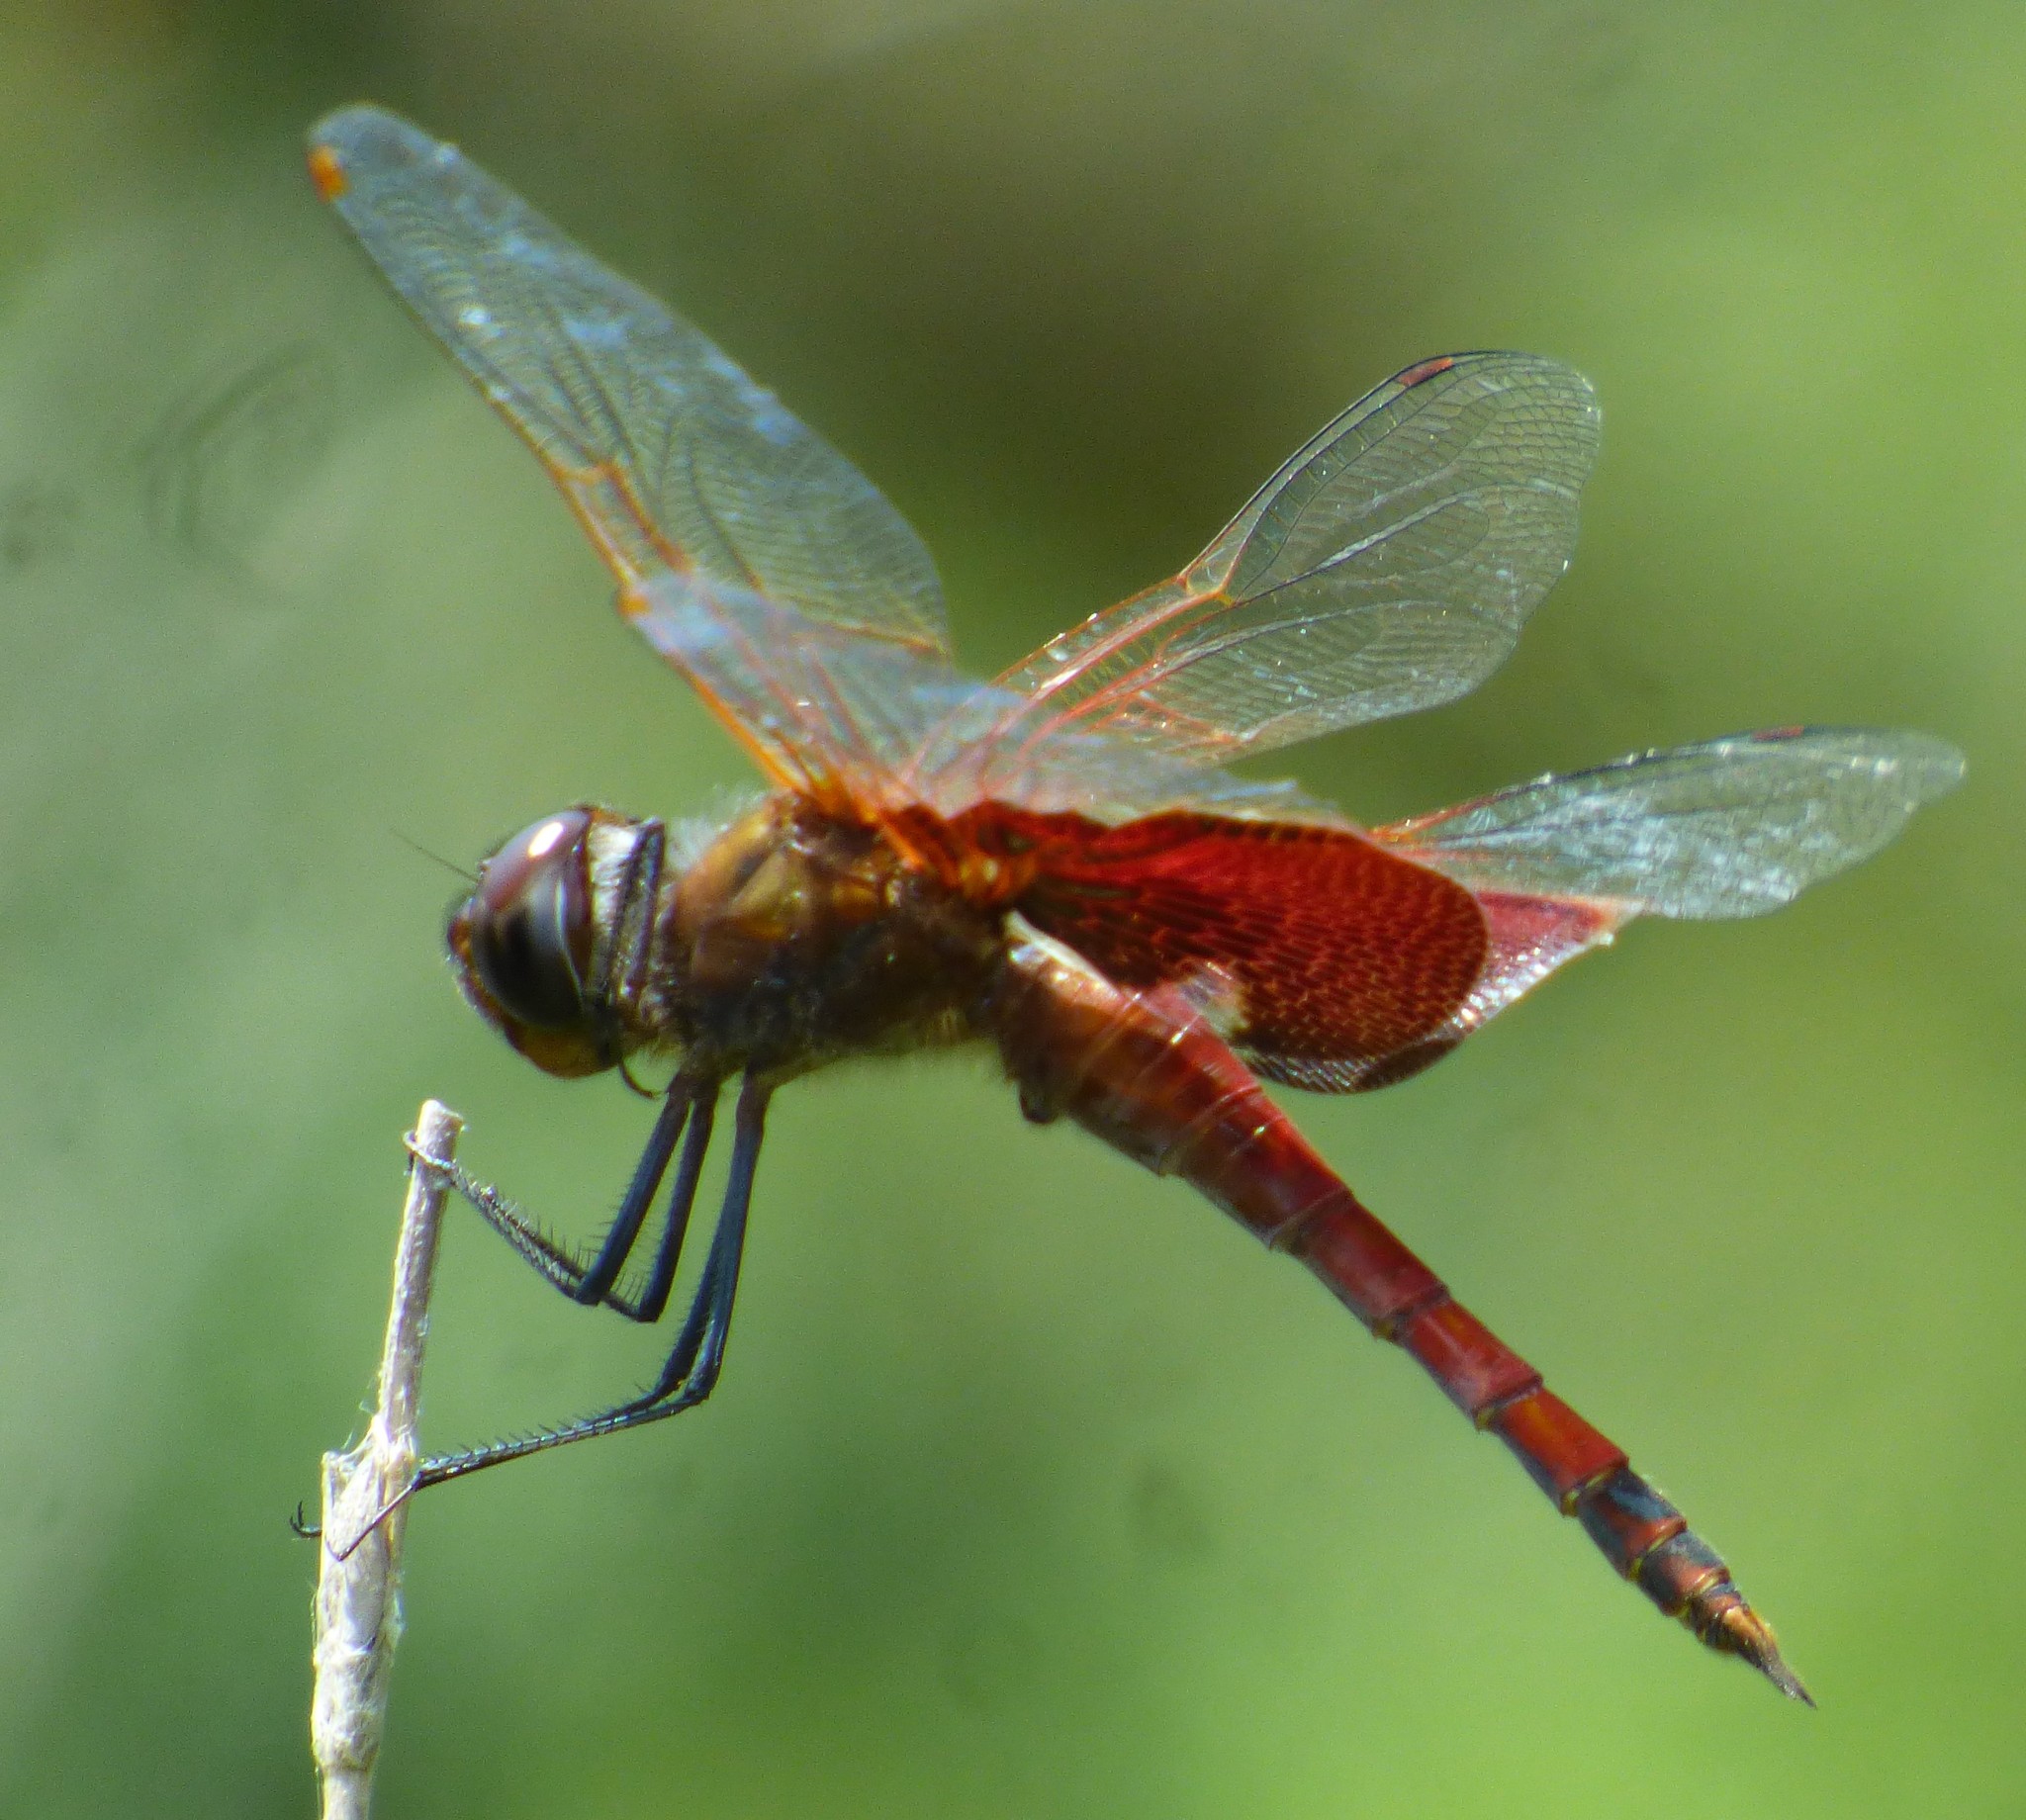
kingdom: Animalia
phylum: Arthropoda
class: Insecta
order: Odonata
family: Libellulidae
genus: Tramea
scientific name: Tramea carolina
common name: Carolina saddlebags
